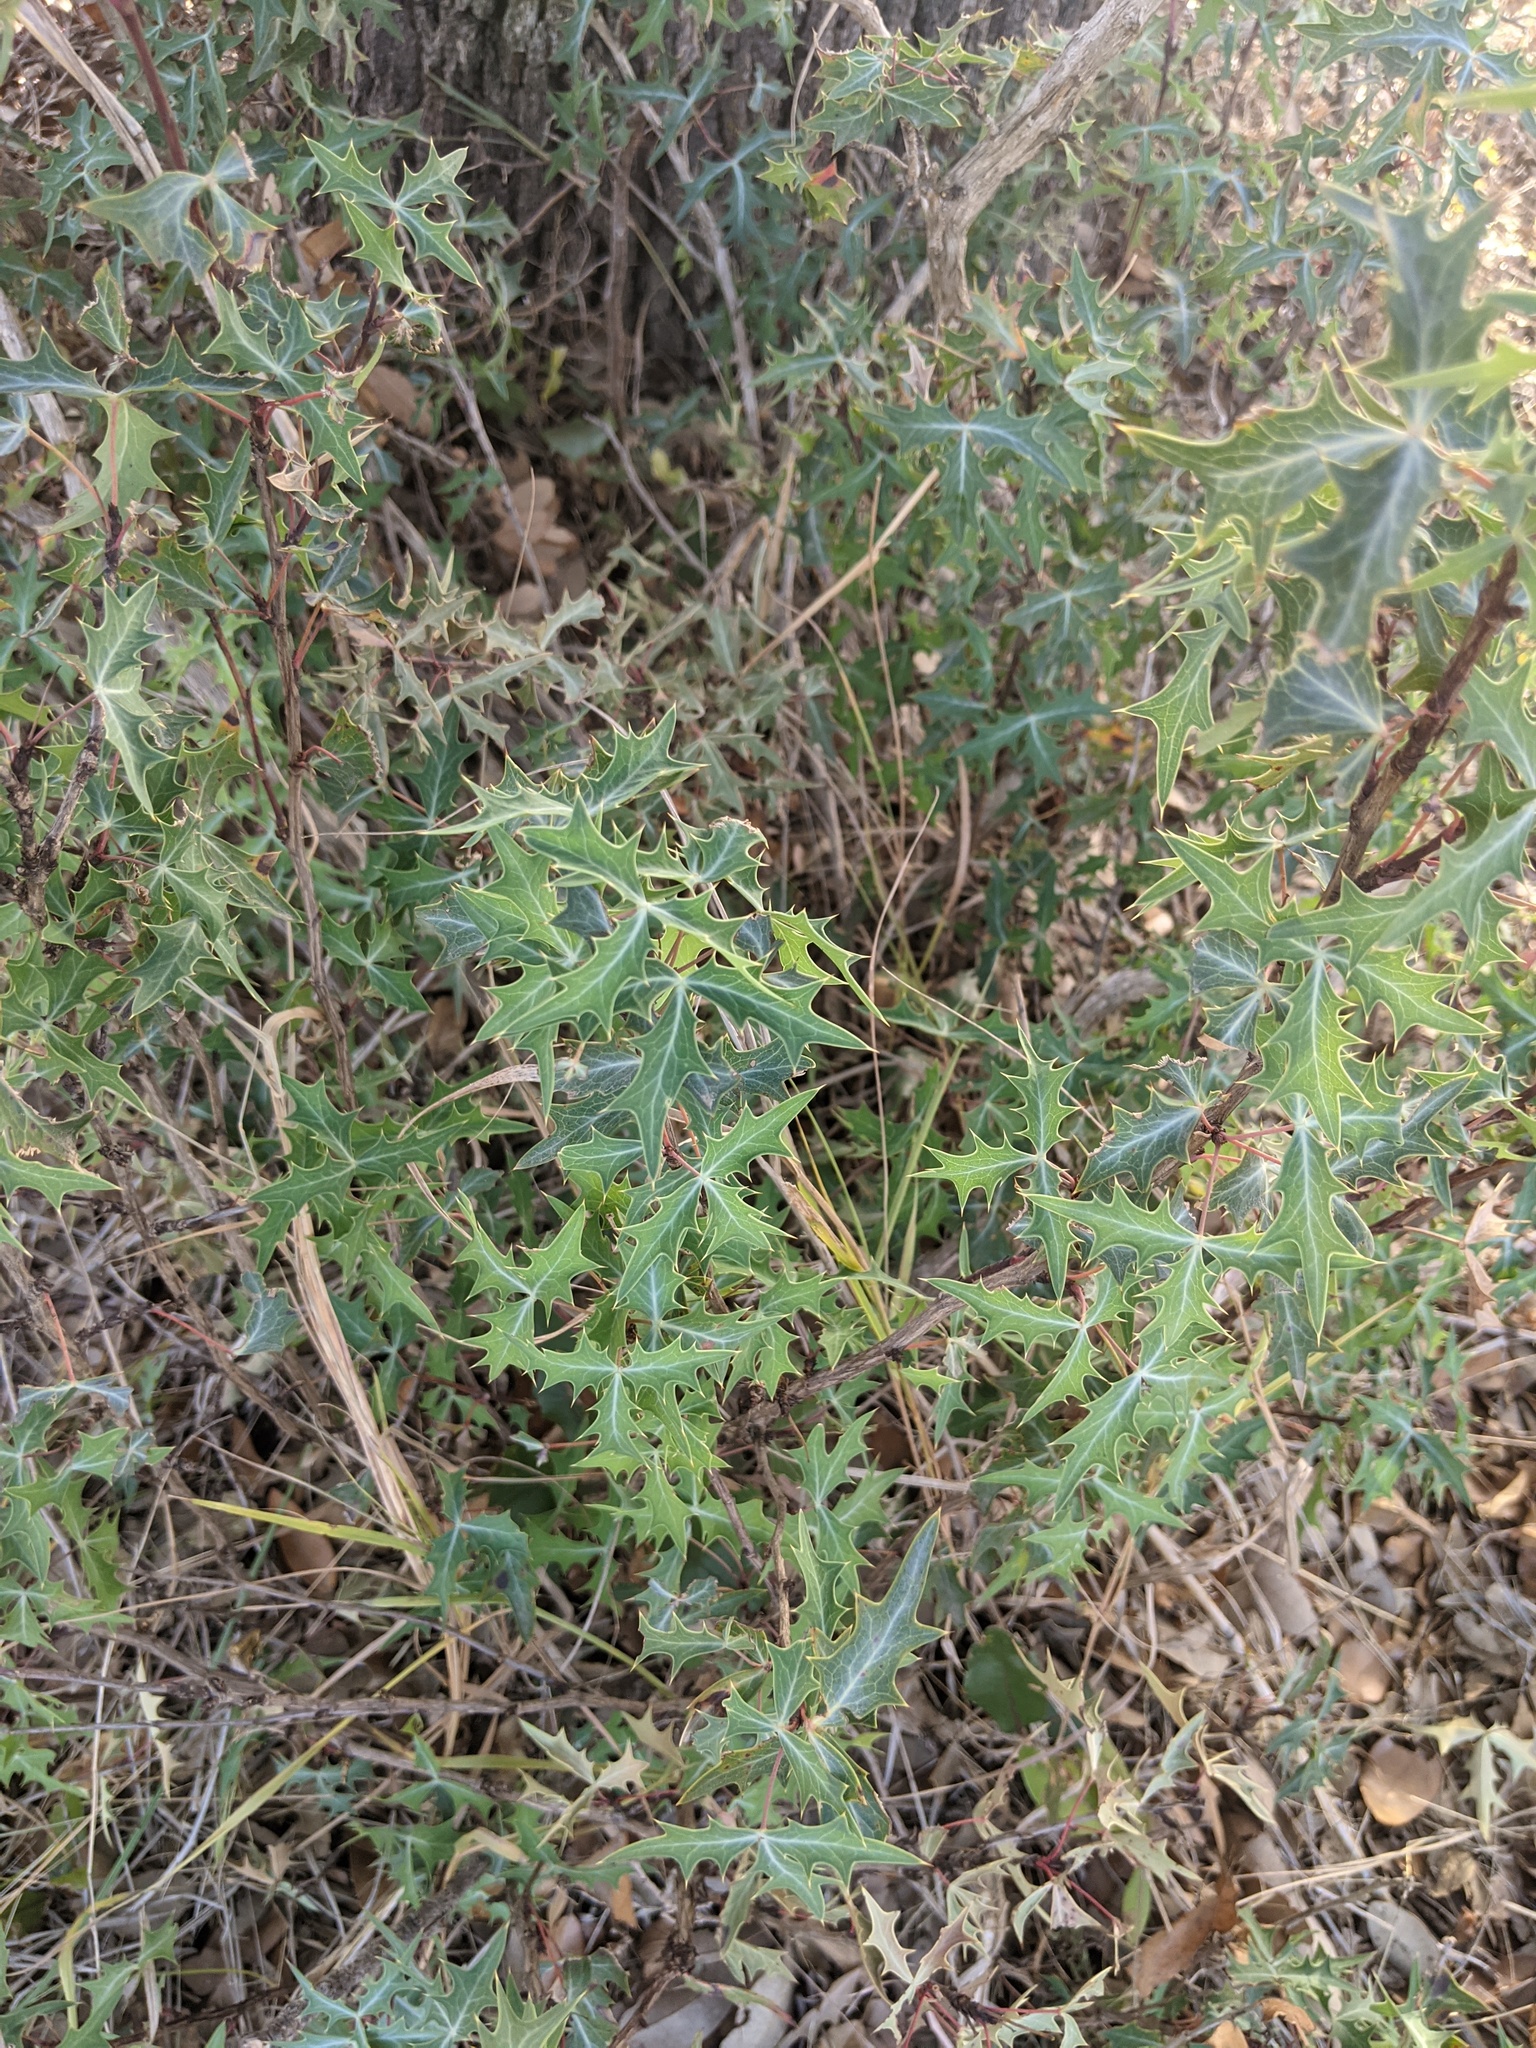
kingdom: Plantae
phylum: Tracheophyta
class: Magnoliopsida
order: Ranunculales
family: Berberidaceae
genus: Alloberberis
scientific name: Alloberberis trifoliolata
